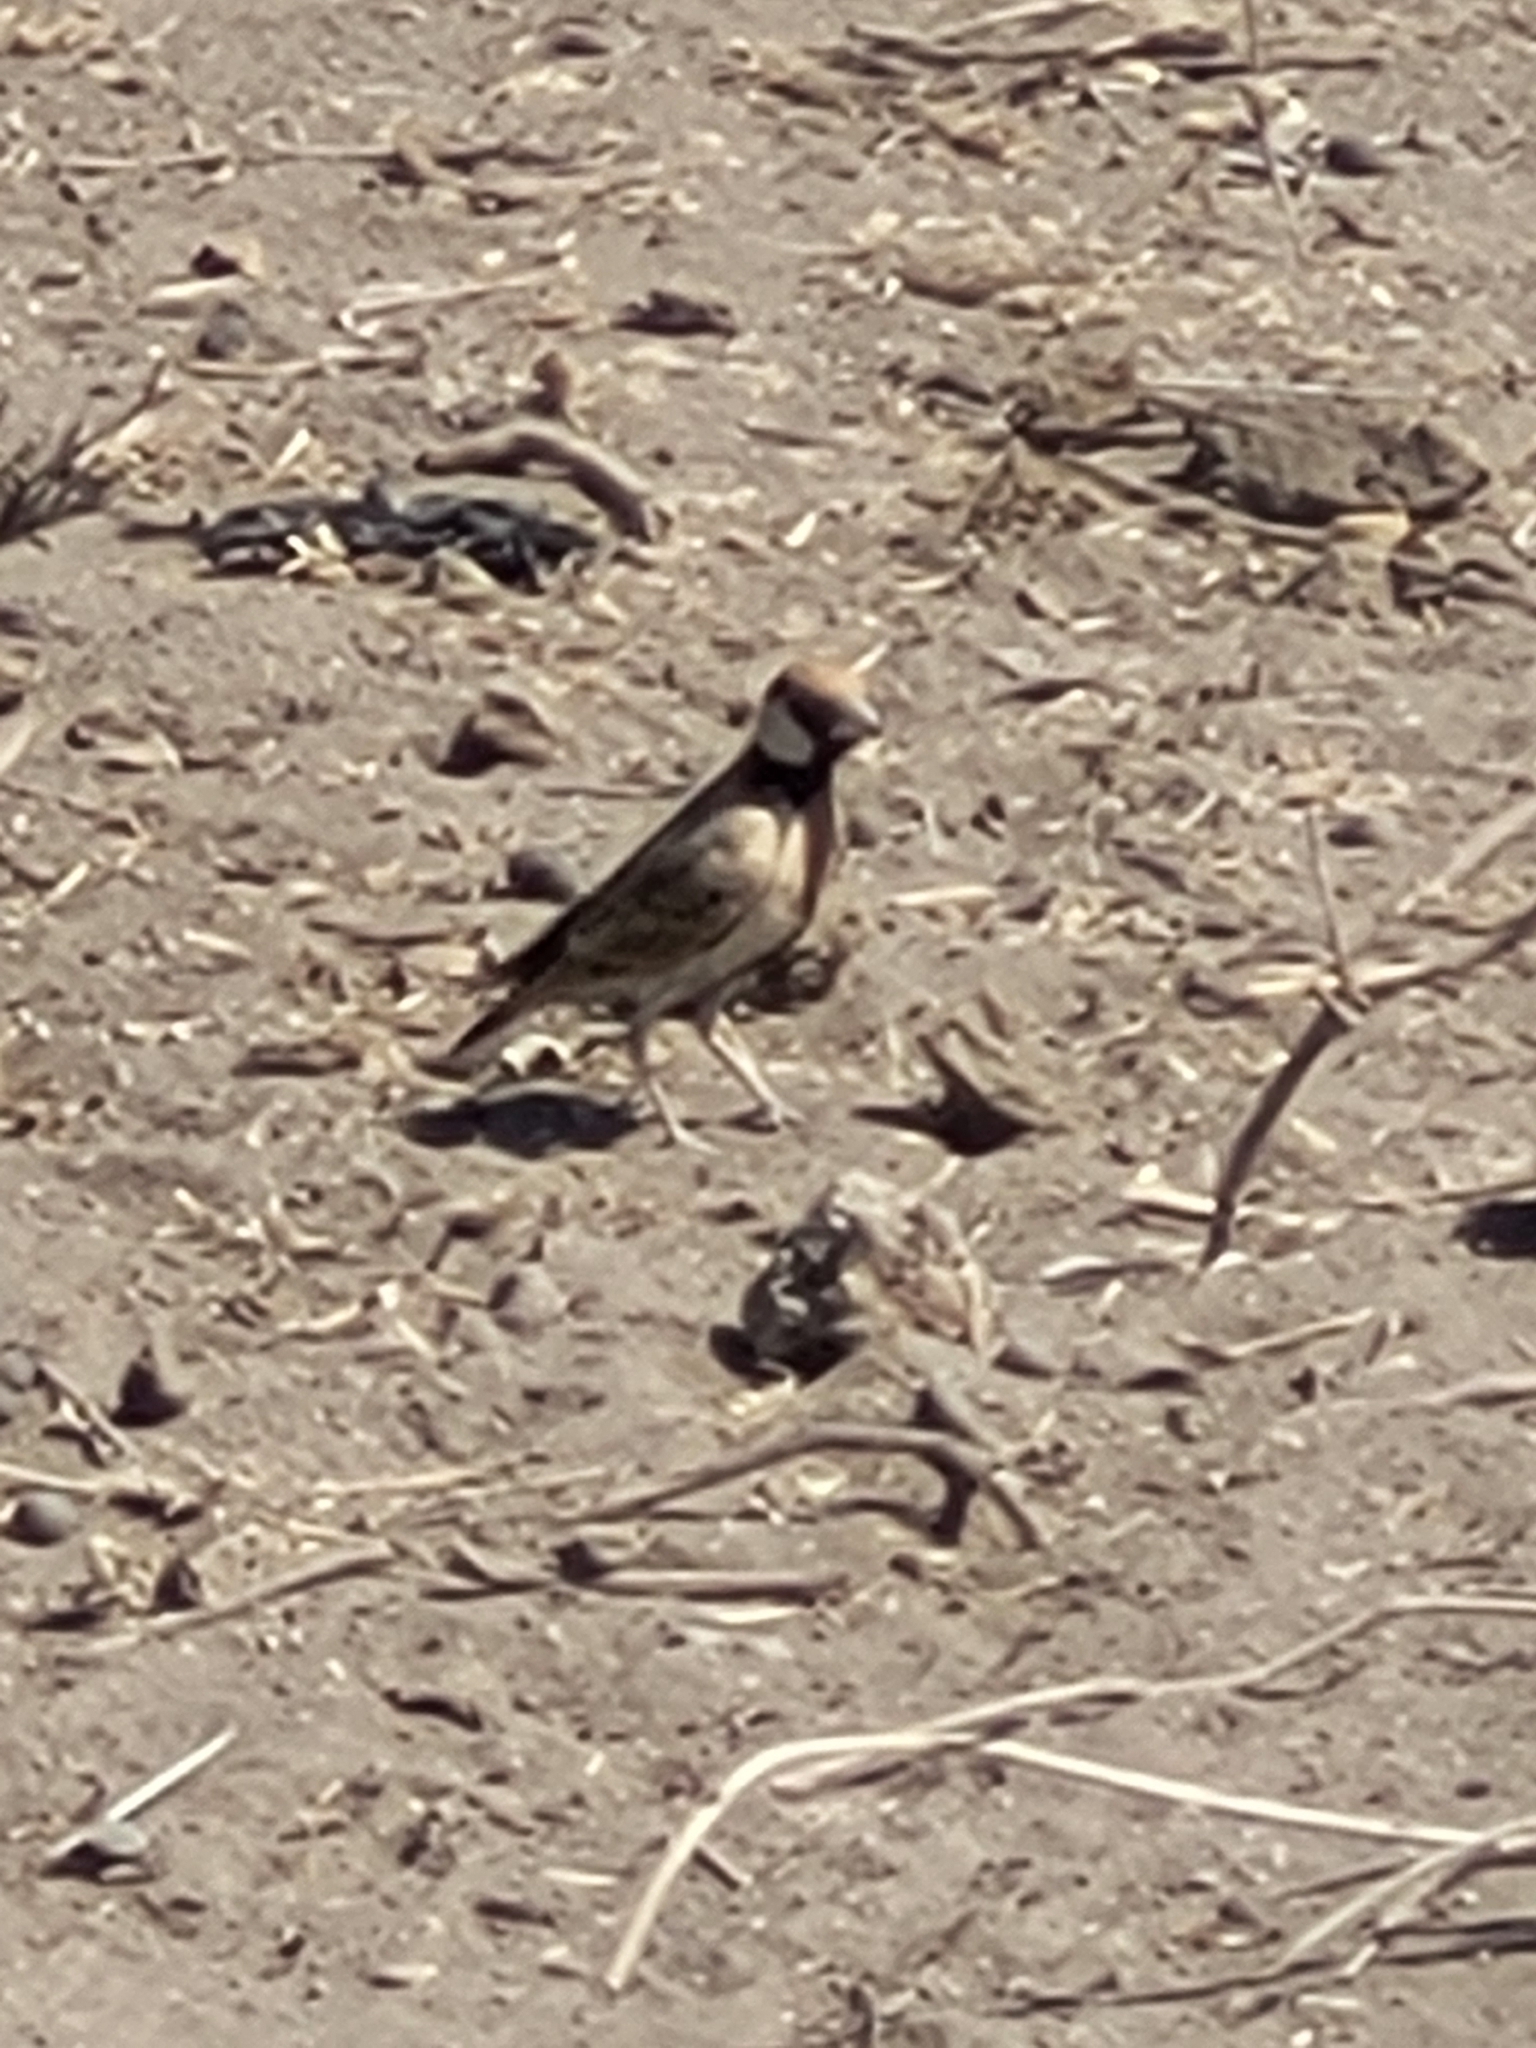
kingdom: Animalia
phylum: Chordata
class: Aves
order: Passeriformes
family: Alaudidae
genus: Eremopterix
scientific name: Eremopterix leucopareia
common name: Fischer's sparrow-lark
